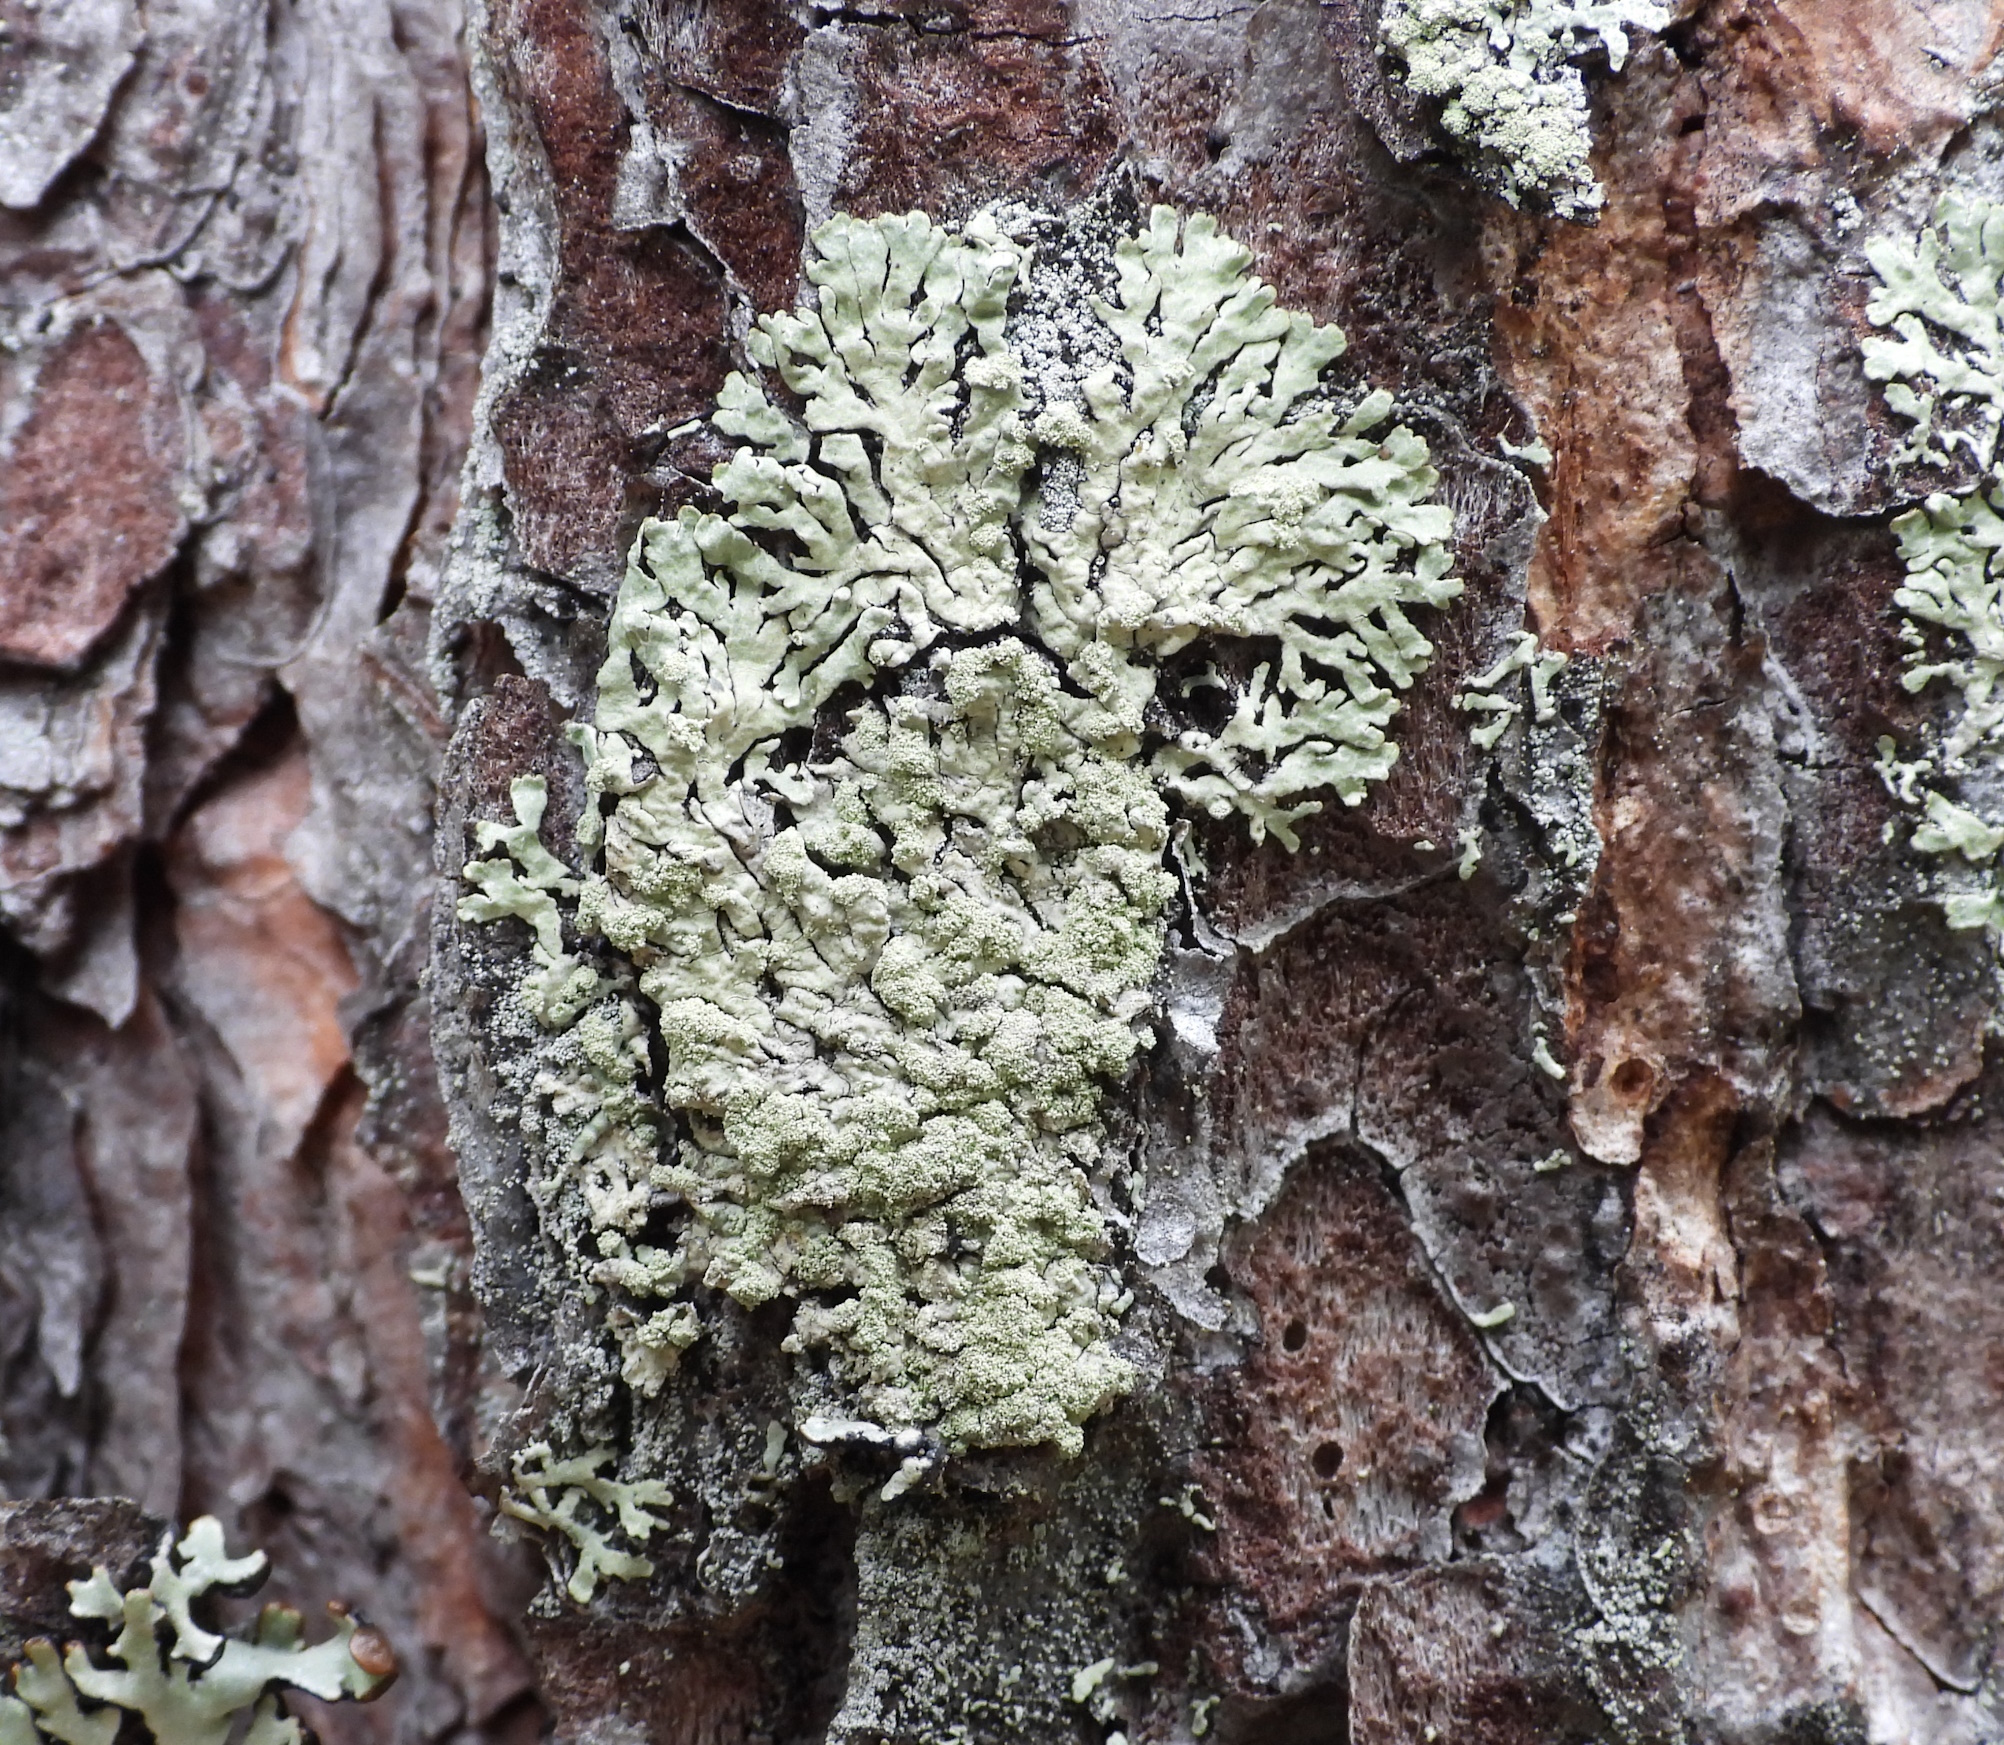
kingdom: Fungi
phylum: Ascomycota
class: Lecanoromycetes
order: Lecanorales
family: Parmeliaceae
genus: Parmeliopsis
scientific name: Parmeliopsis ambigua
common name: Green starburst lichen
